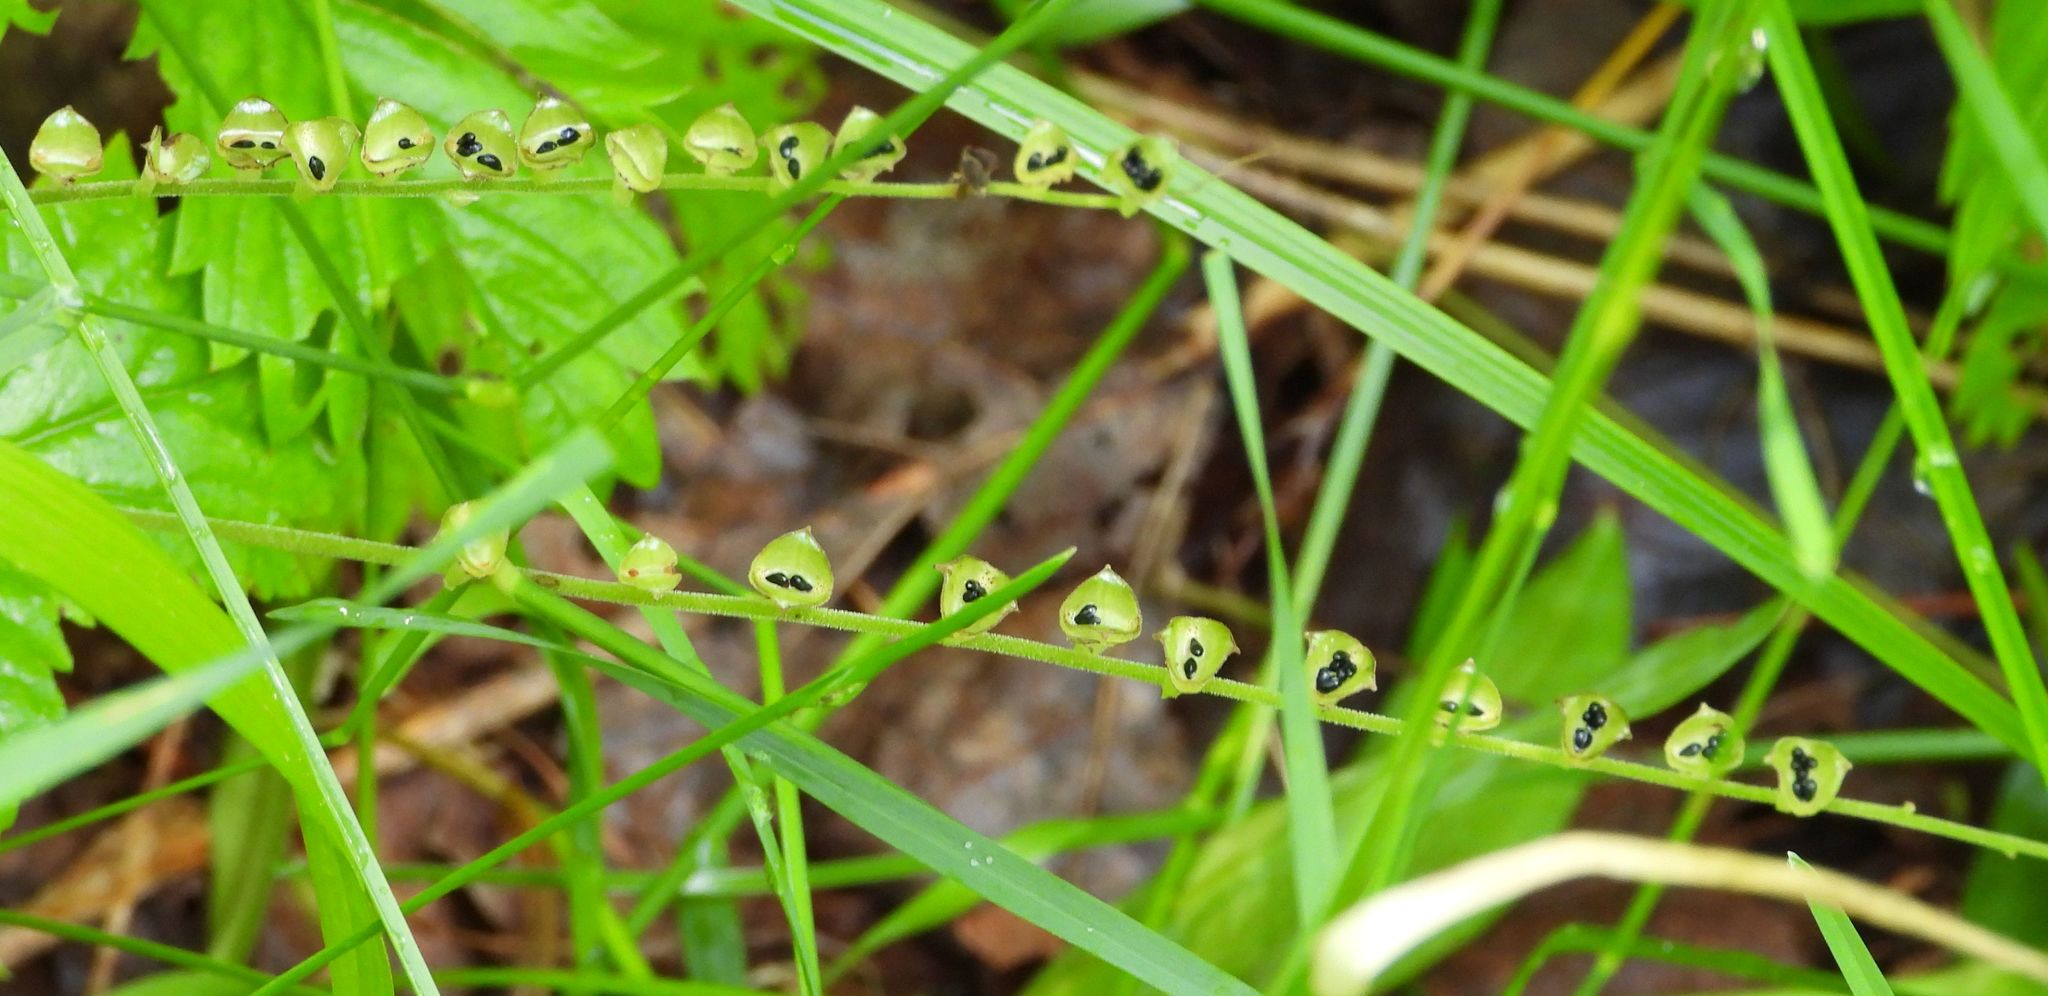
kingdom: Plantae
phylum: Tracheophyta
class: Magnoliopsida
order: Saxifragales
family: Saxifragaceae
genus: Mitella
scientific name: Mitella diphylla
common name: Coolwort
